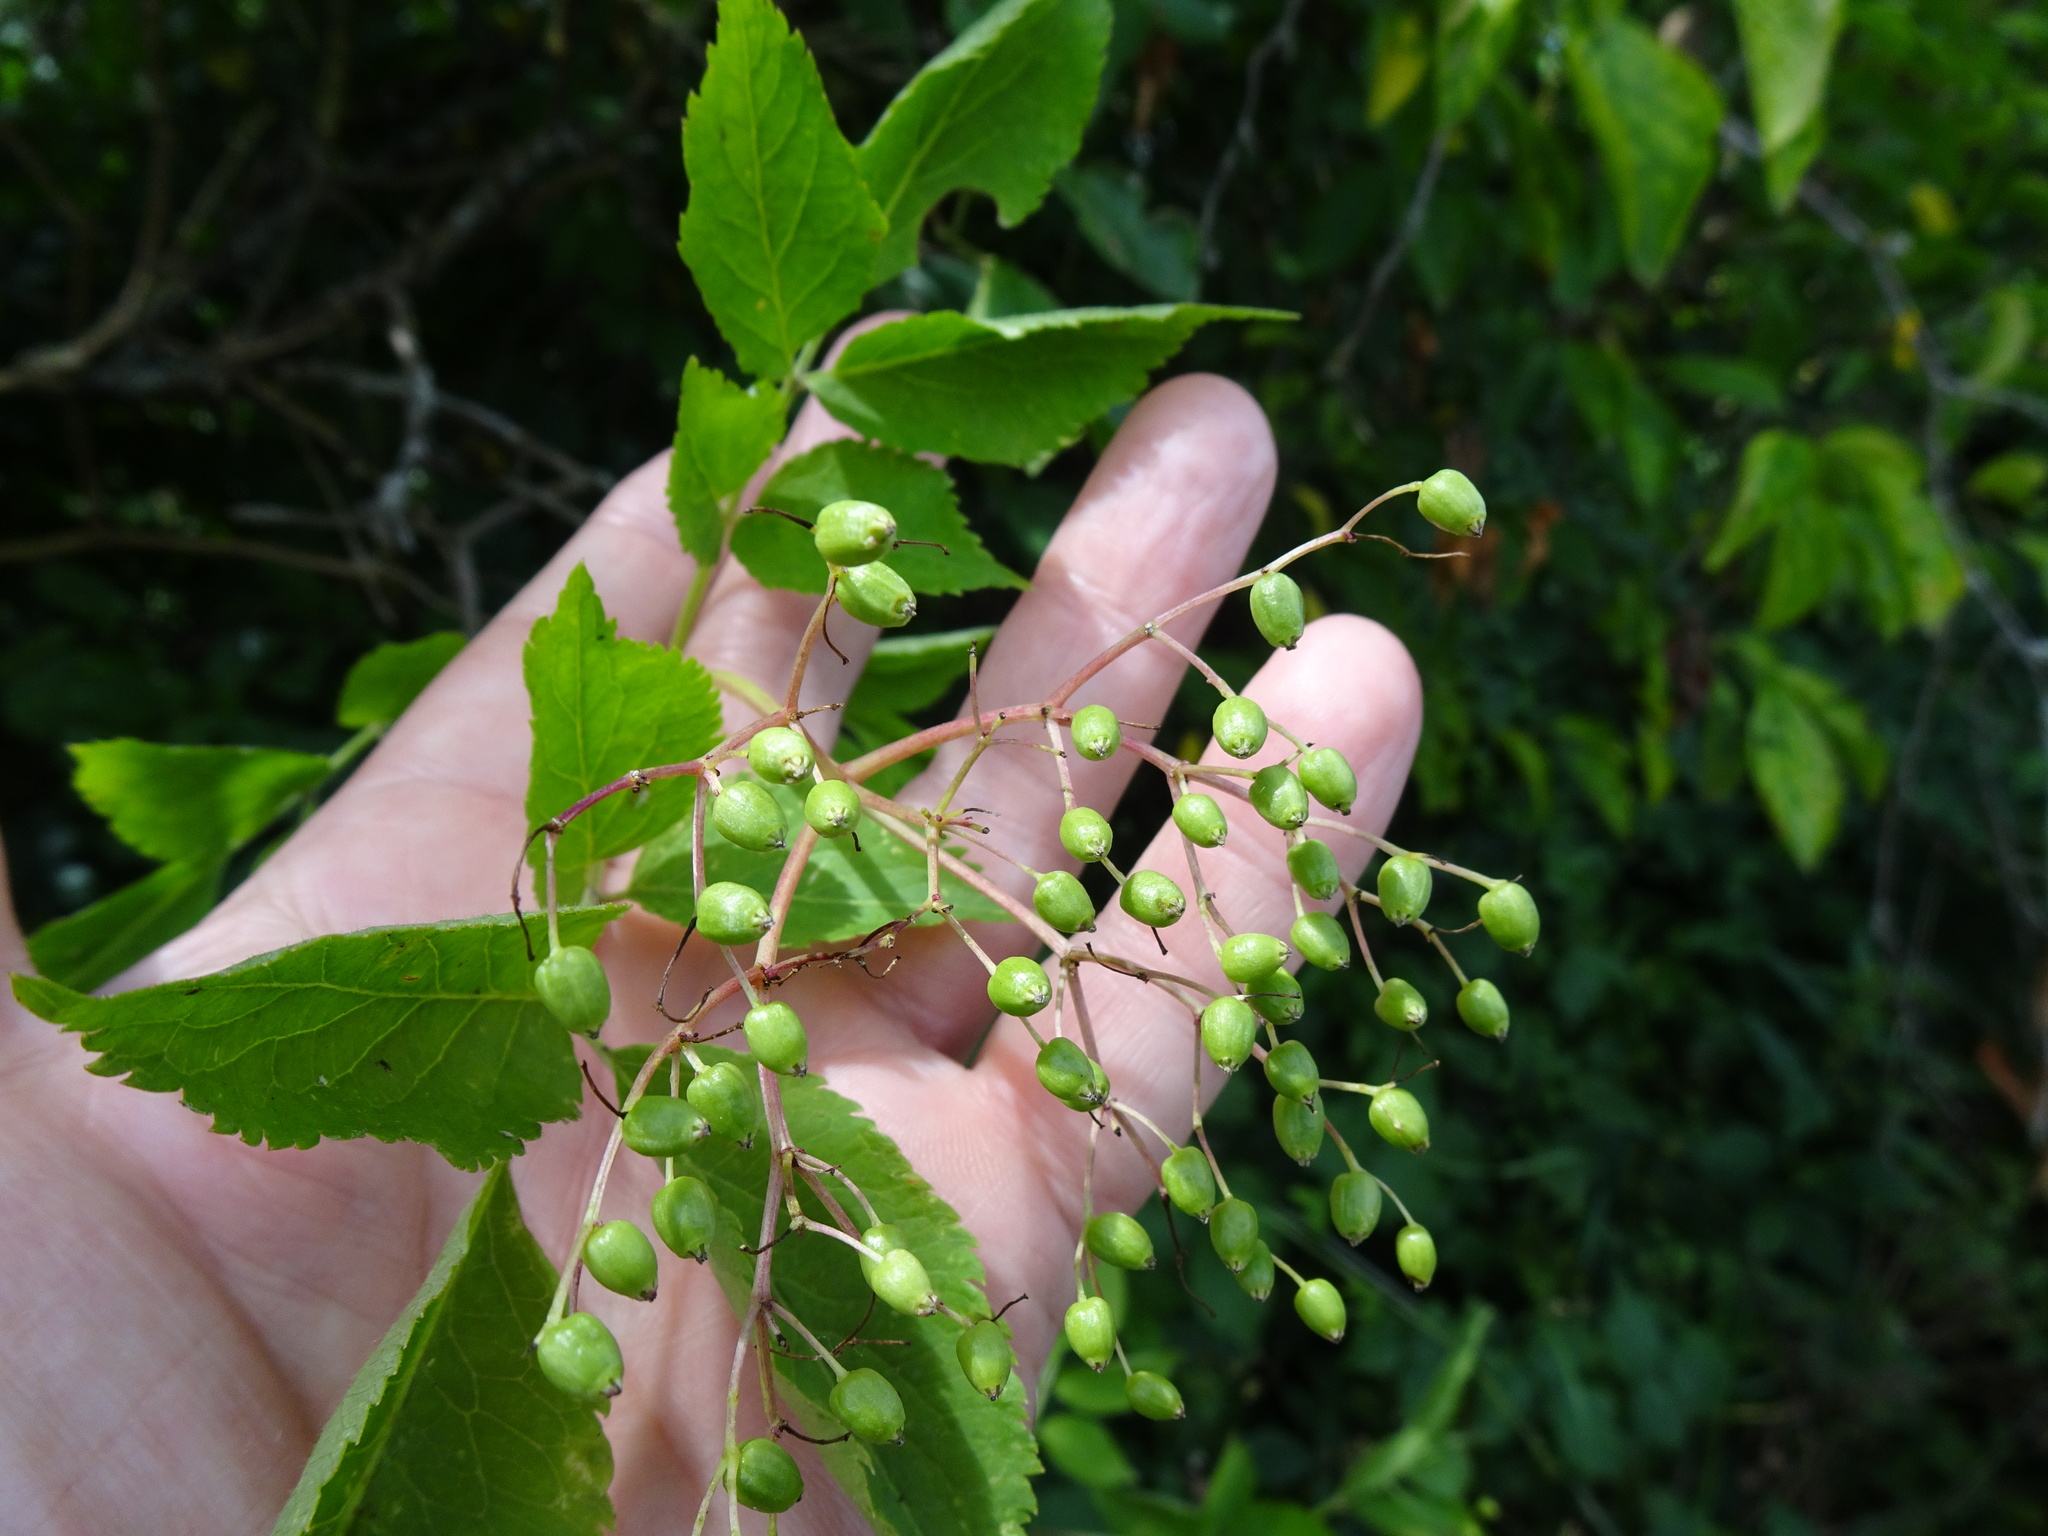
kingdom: Plantae
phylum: Tracheophyta
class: Magnoliopsida
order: Dipsacales
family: Viburnaceae
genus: Sambucus
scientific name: Sambucus nigra
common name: Elder
